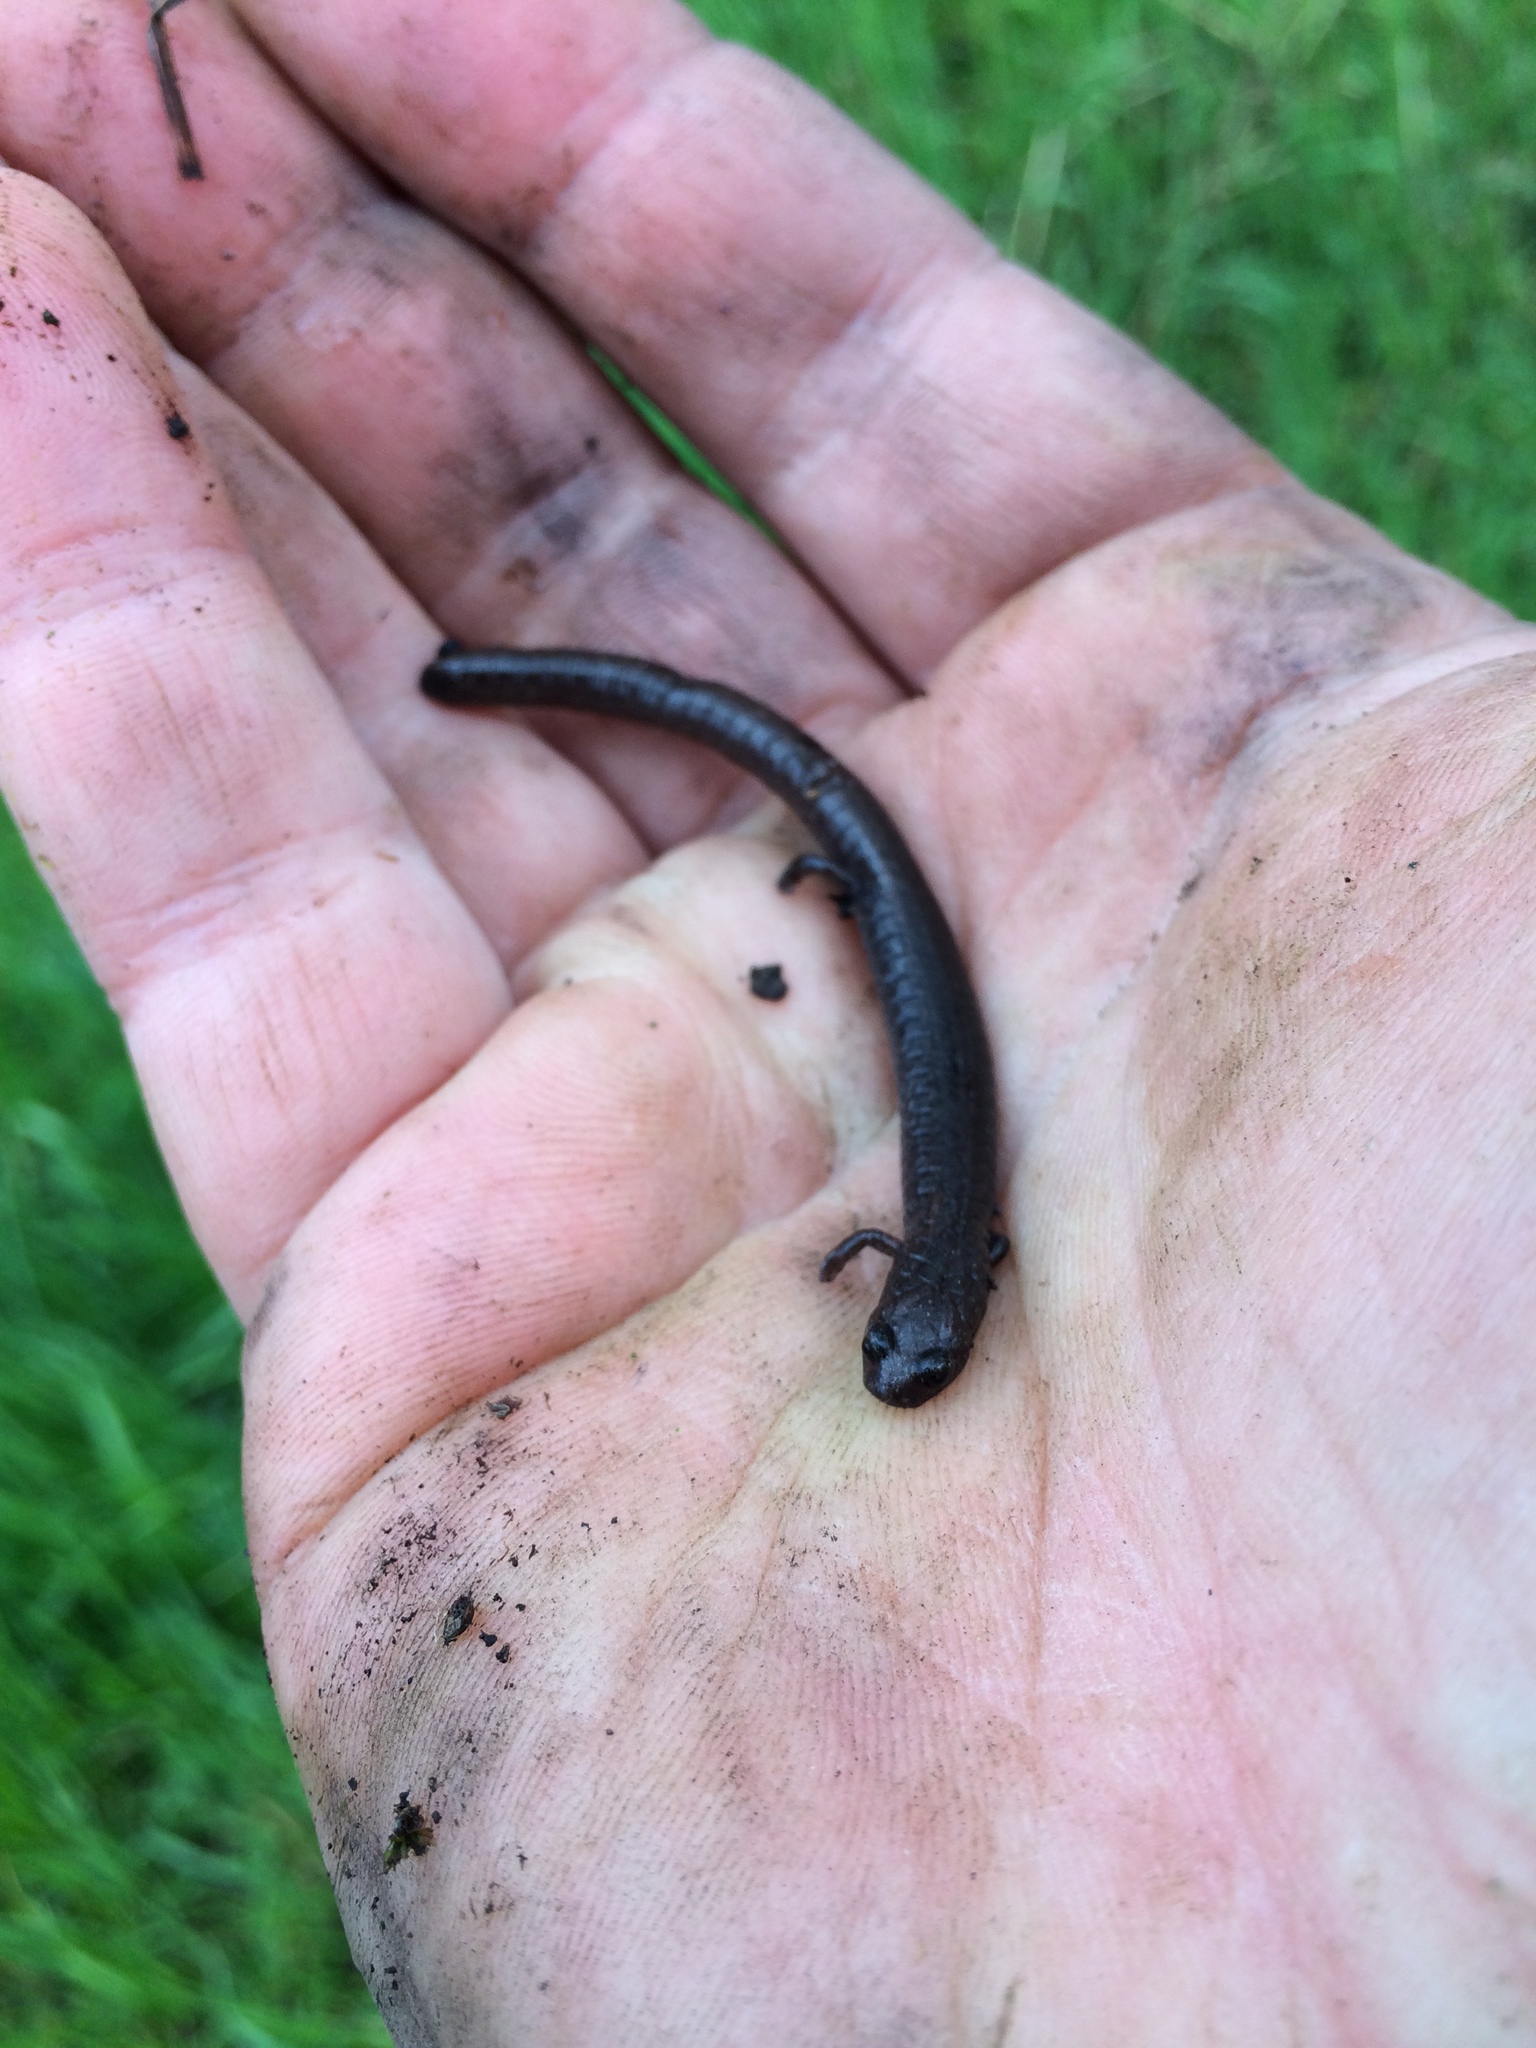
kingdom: Animalia
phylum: Chordata
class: Amphibia
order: Caudata
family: Plethodontidae
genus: Batrachoseps
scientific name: Batrachoseps attenuatus
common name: California slender salamander
